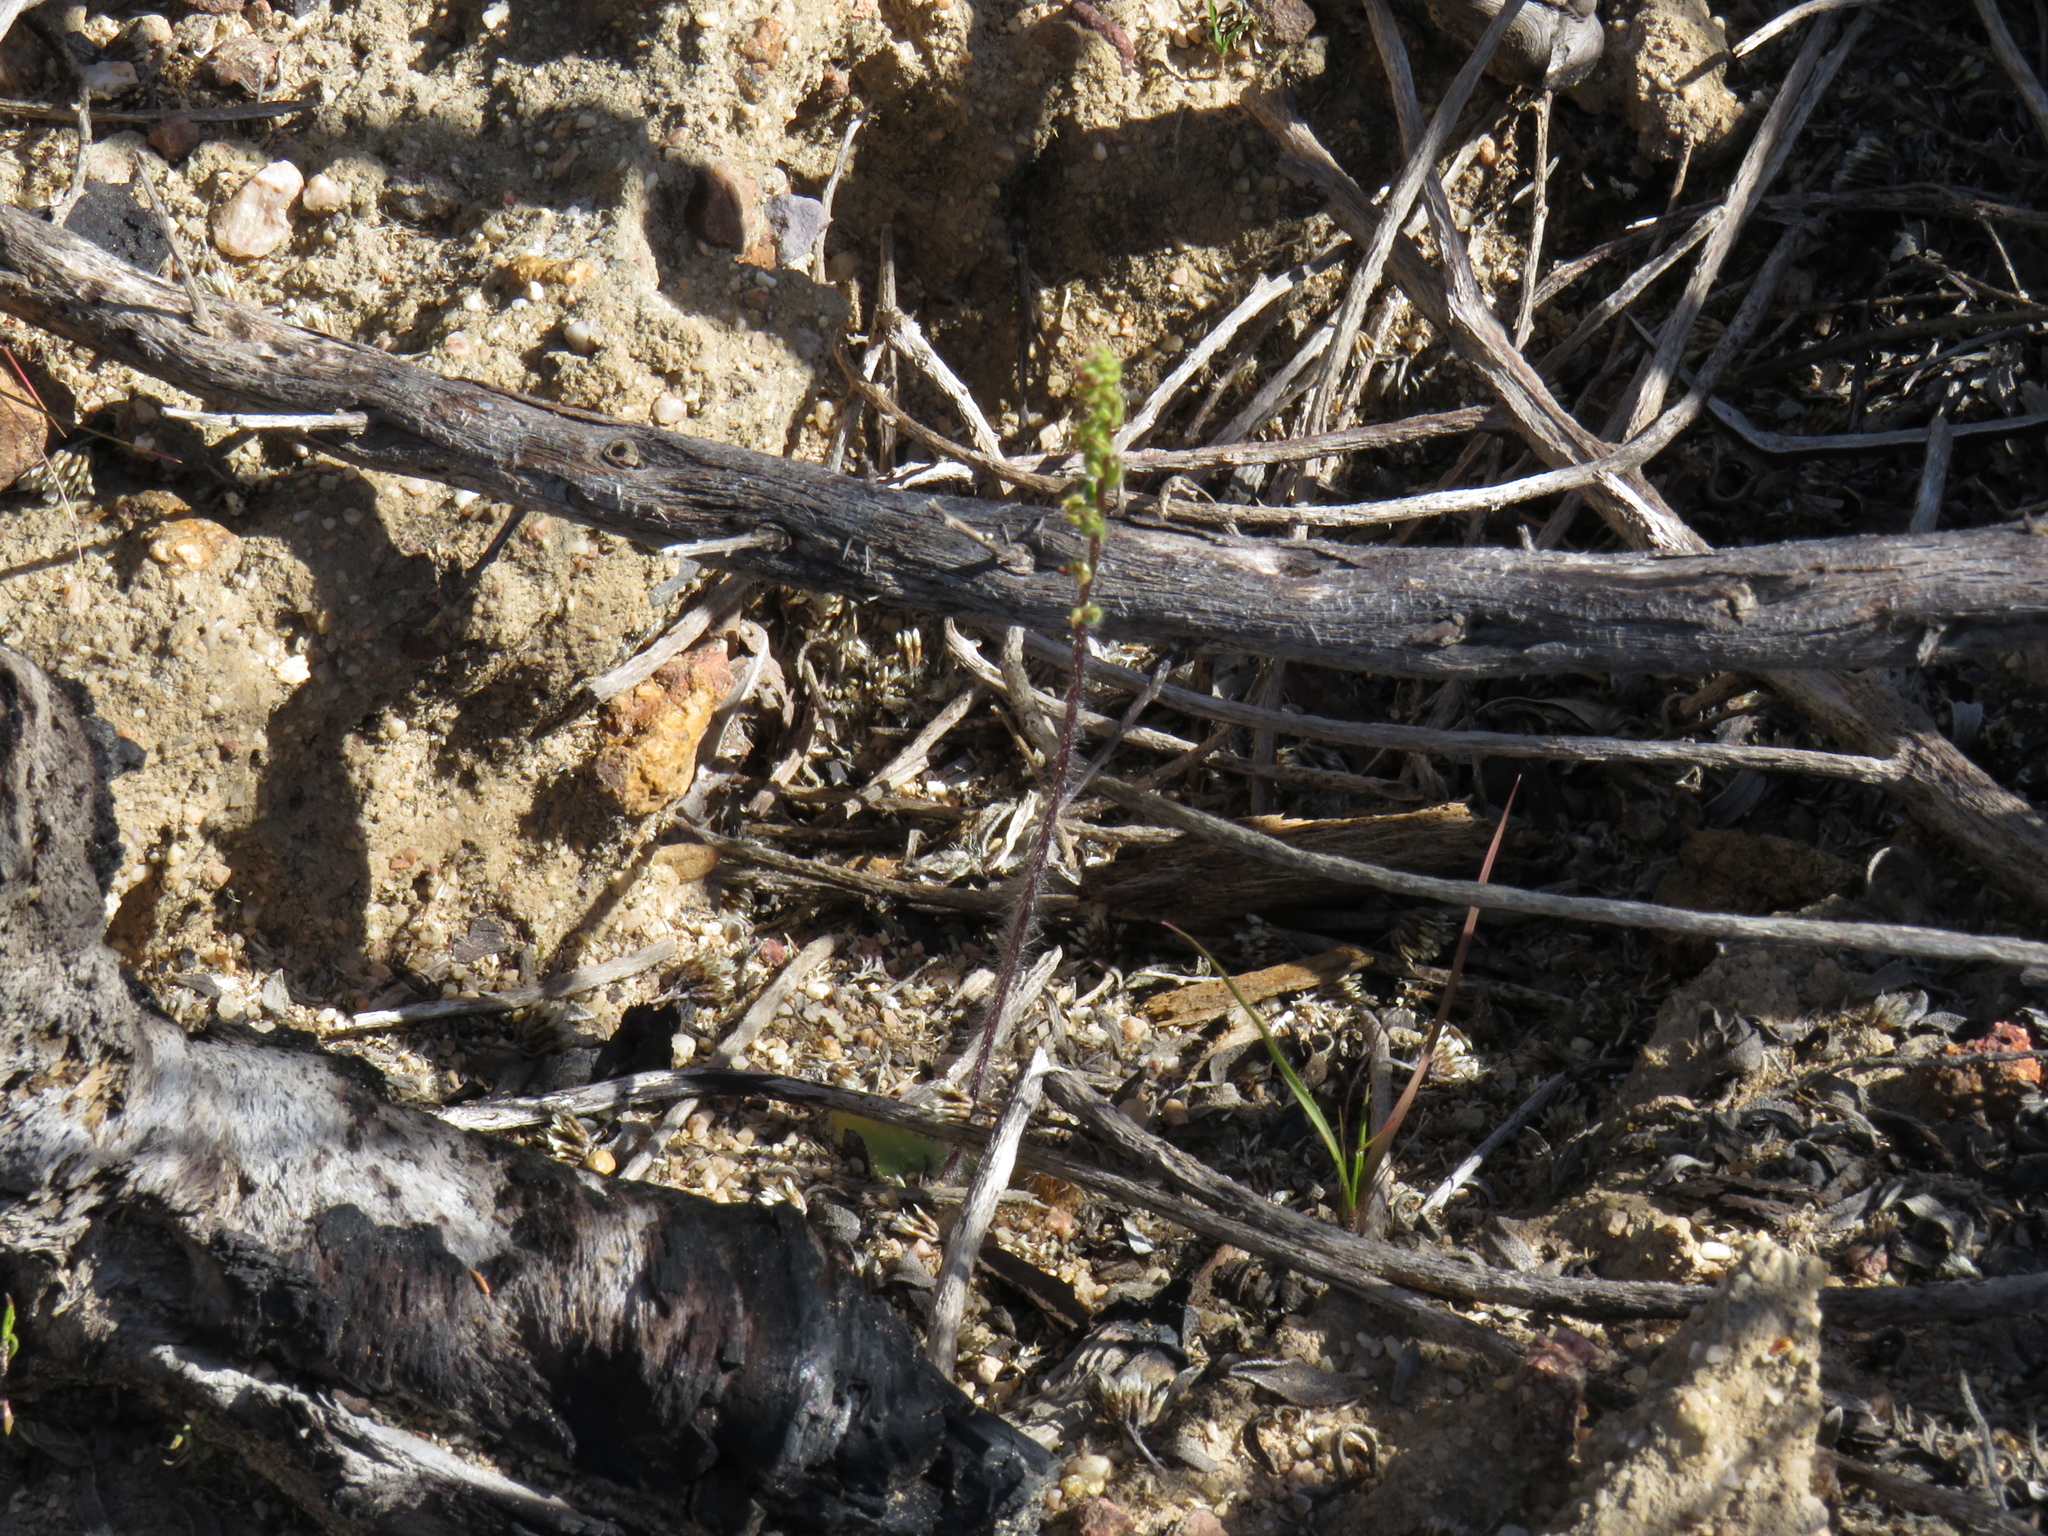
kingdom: Plantae
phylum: Tracheophyta
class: Liliopsida
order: Asparagales
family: Orchidaceae
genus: Holothrix
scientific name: Holothrix villosa
